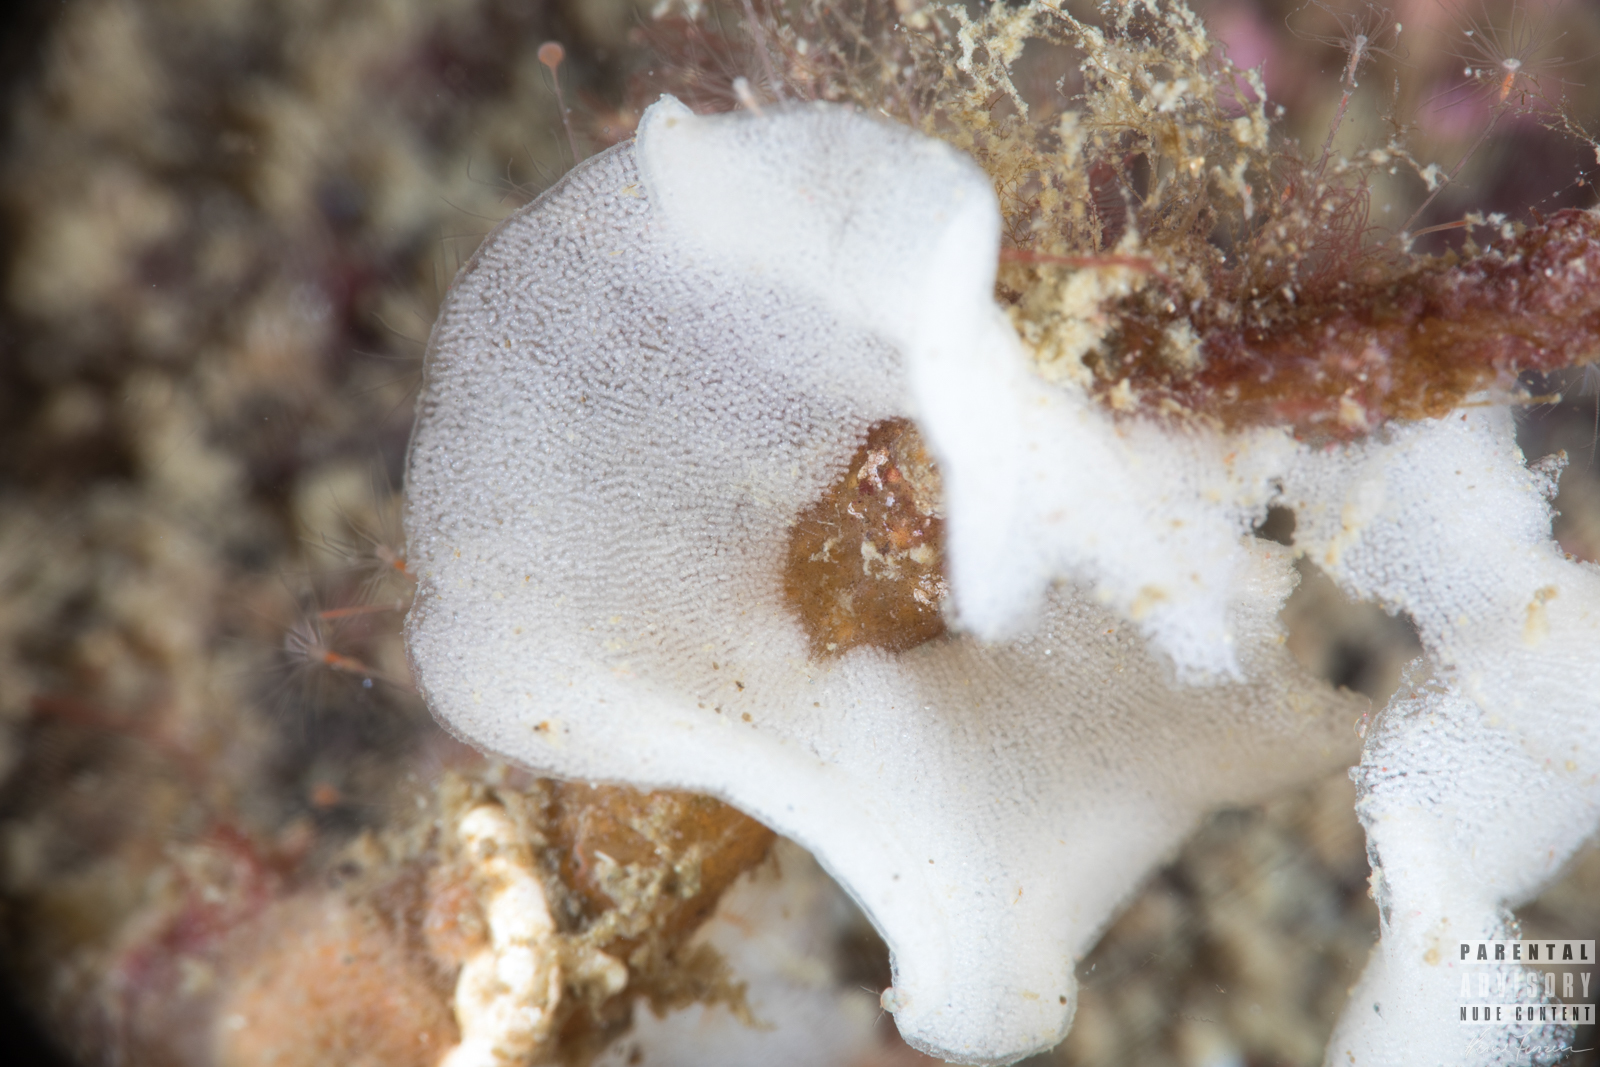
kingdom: Animalia
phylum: Mollusca
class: Gastropoda
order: Nudibranchia
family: Onchidorididae
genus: Acanthodoris
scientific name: Acanthodoris pilosa
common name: Hairy spiny doris
